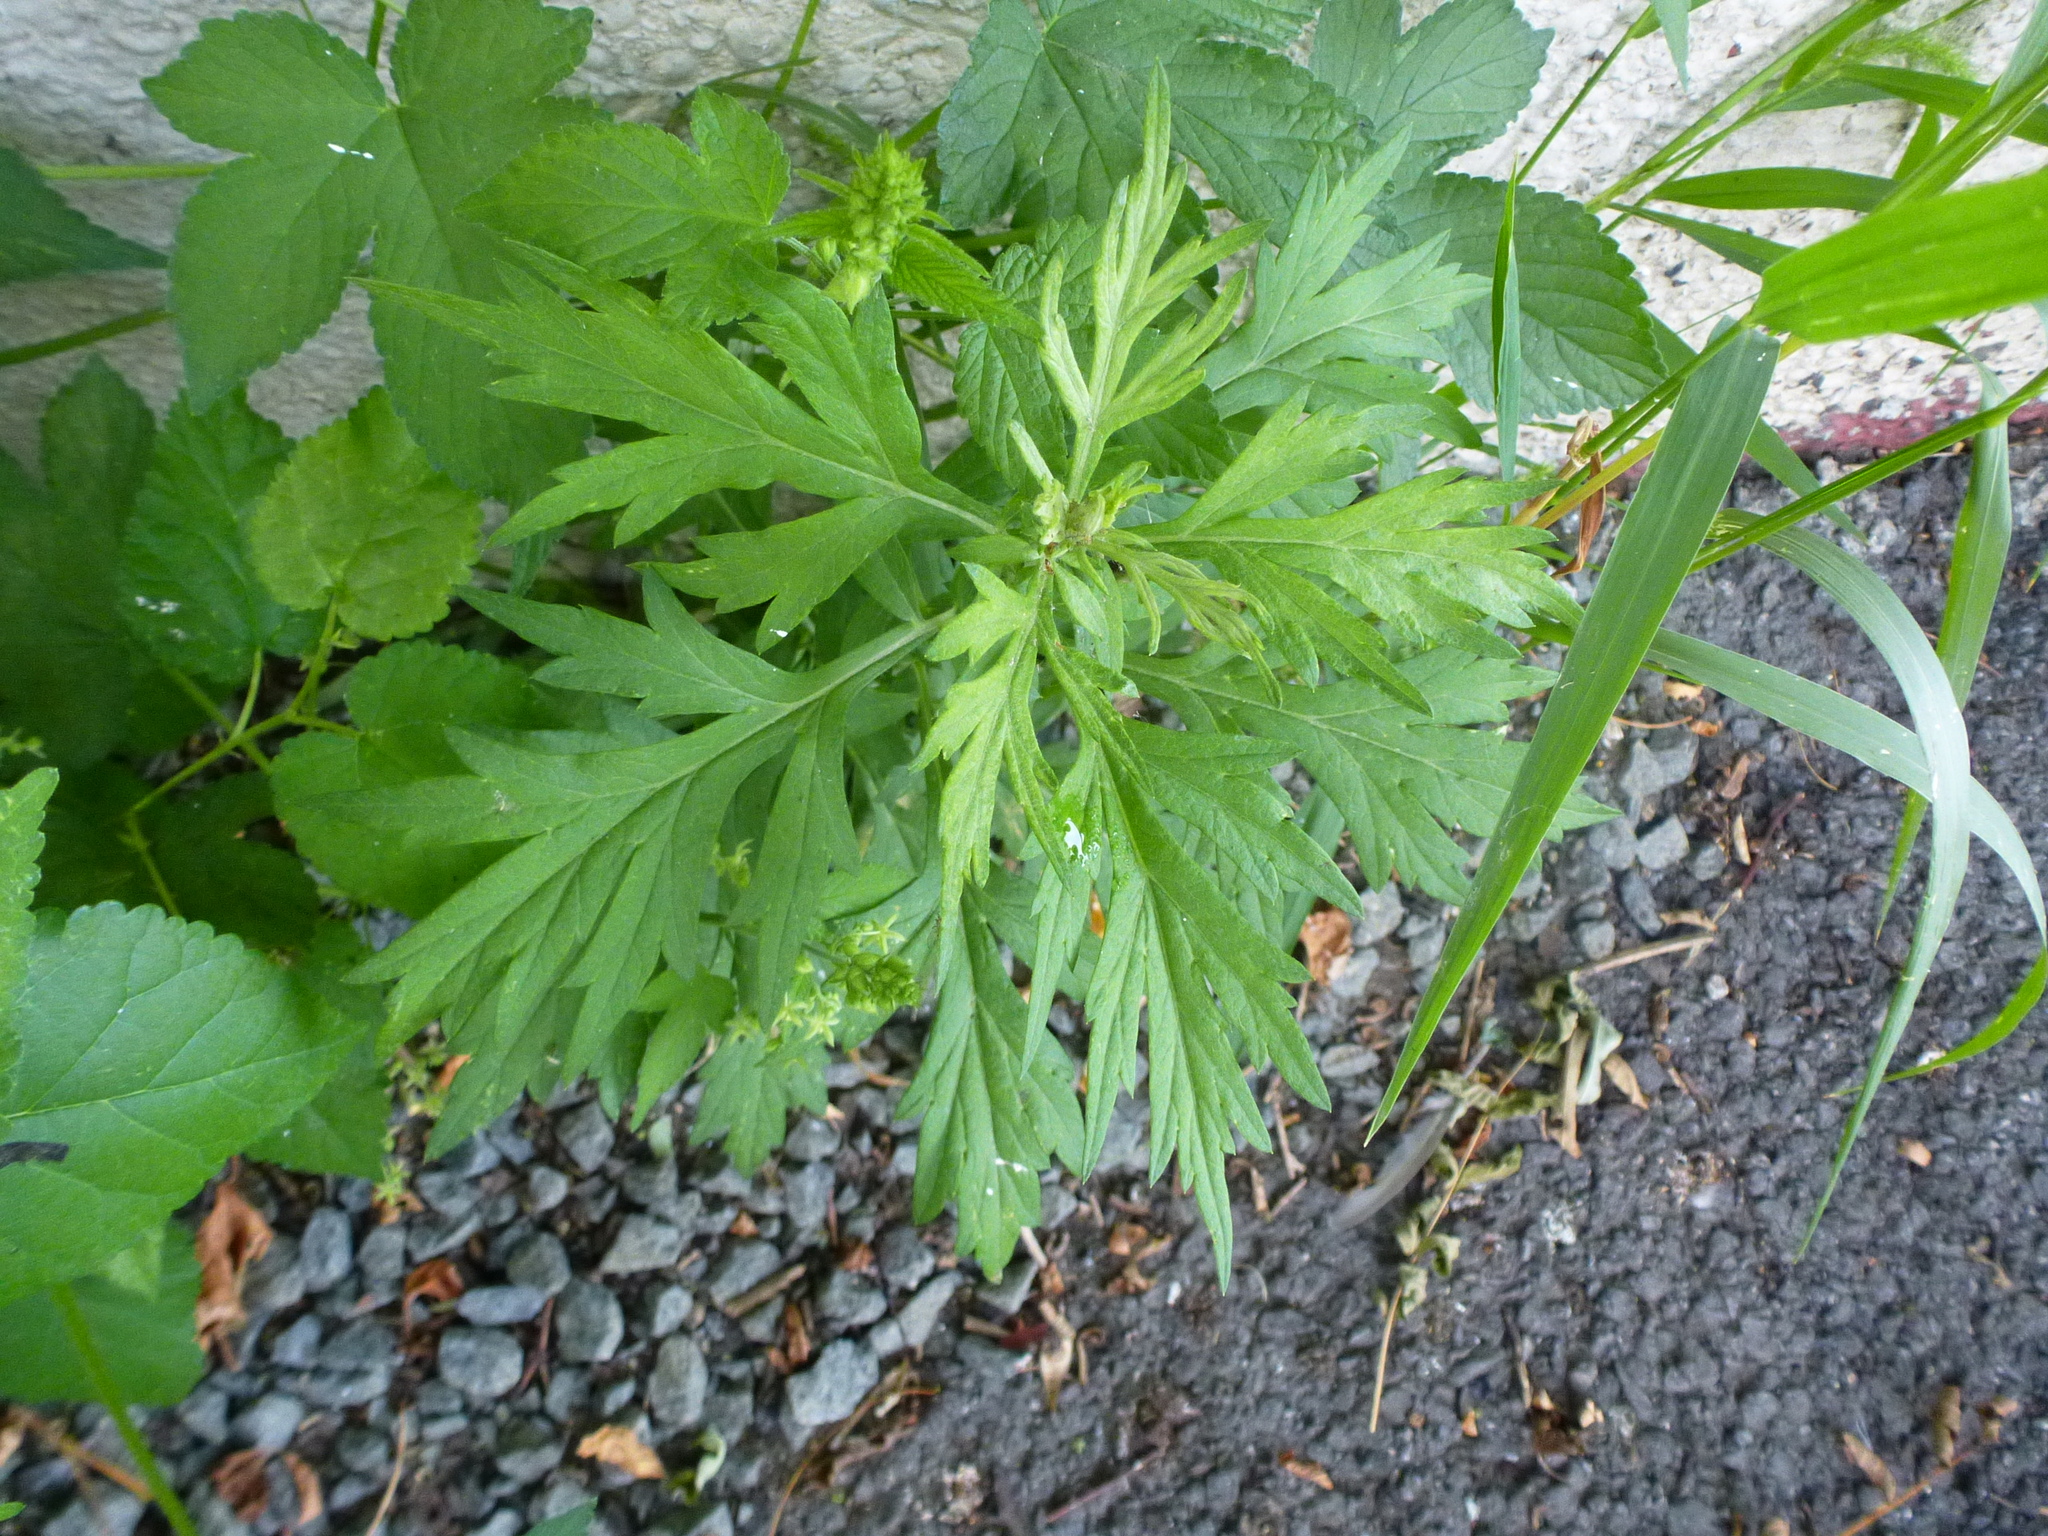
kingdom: Plantae
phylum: Tracheophyta
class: Magnoliopsida
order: Asterales
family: Asteraceae
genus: Artemisia
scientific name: Artemisia vulgaris
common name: Mugwort
